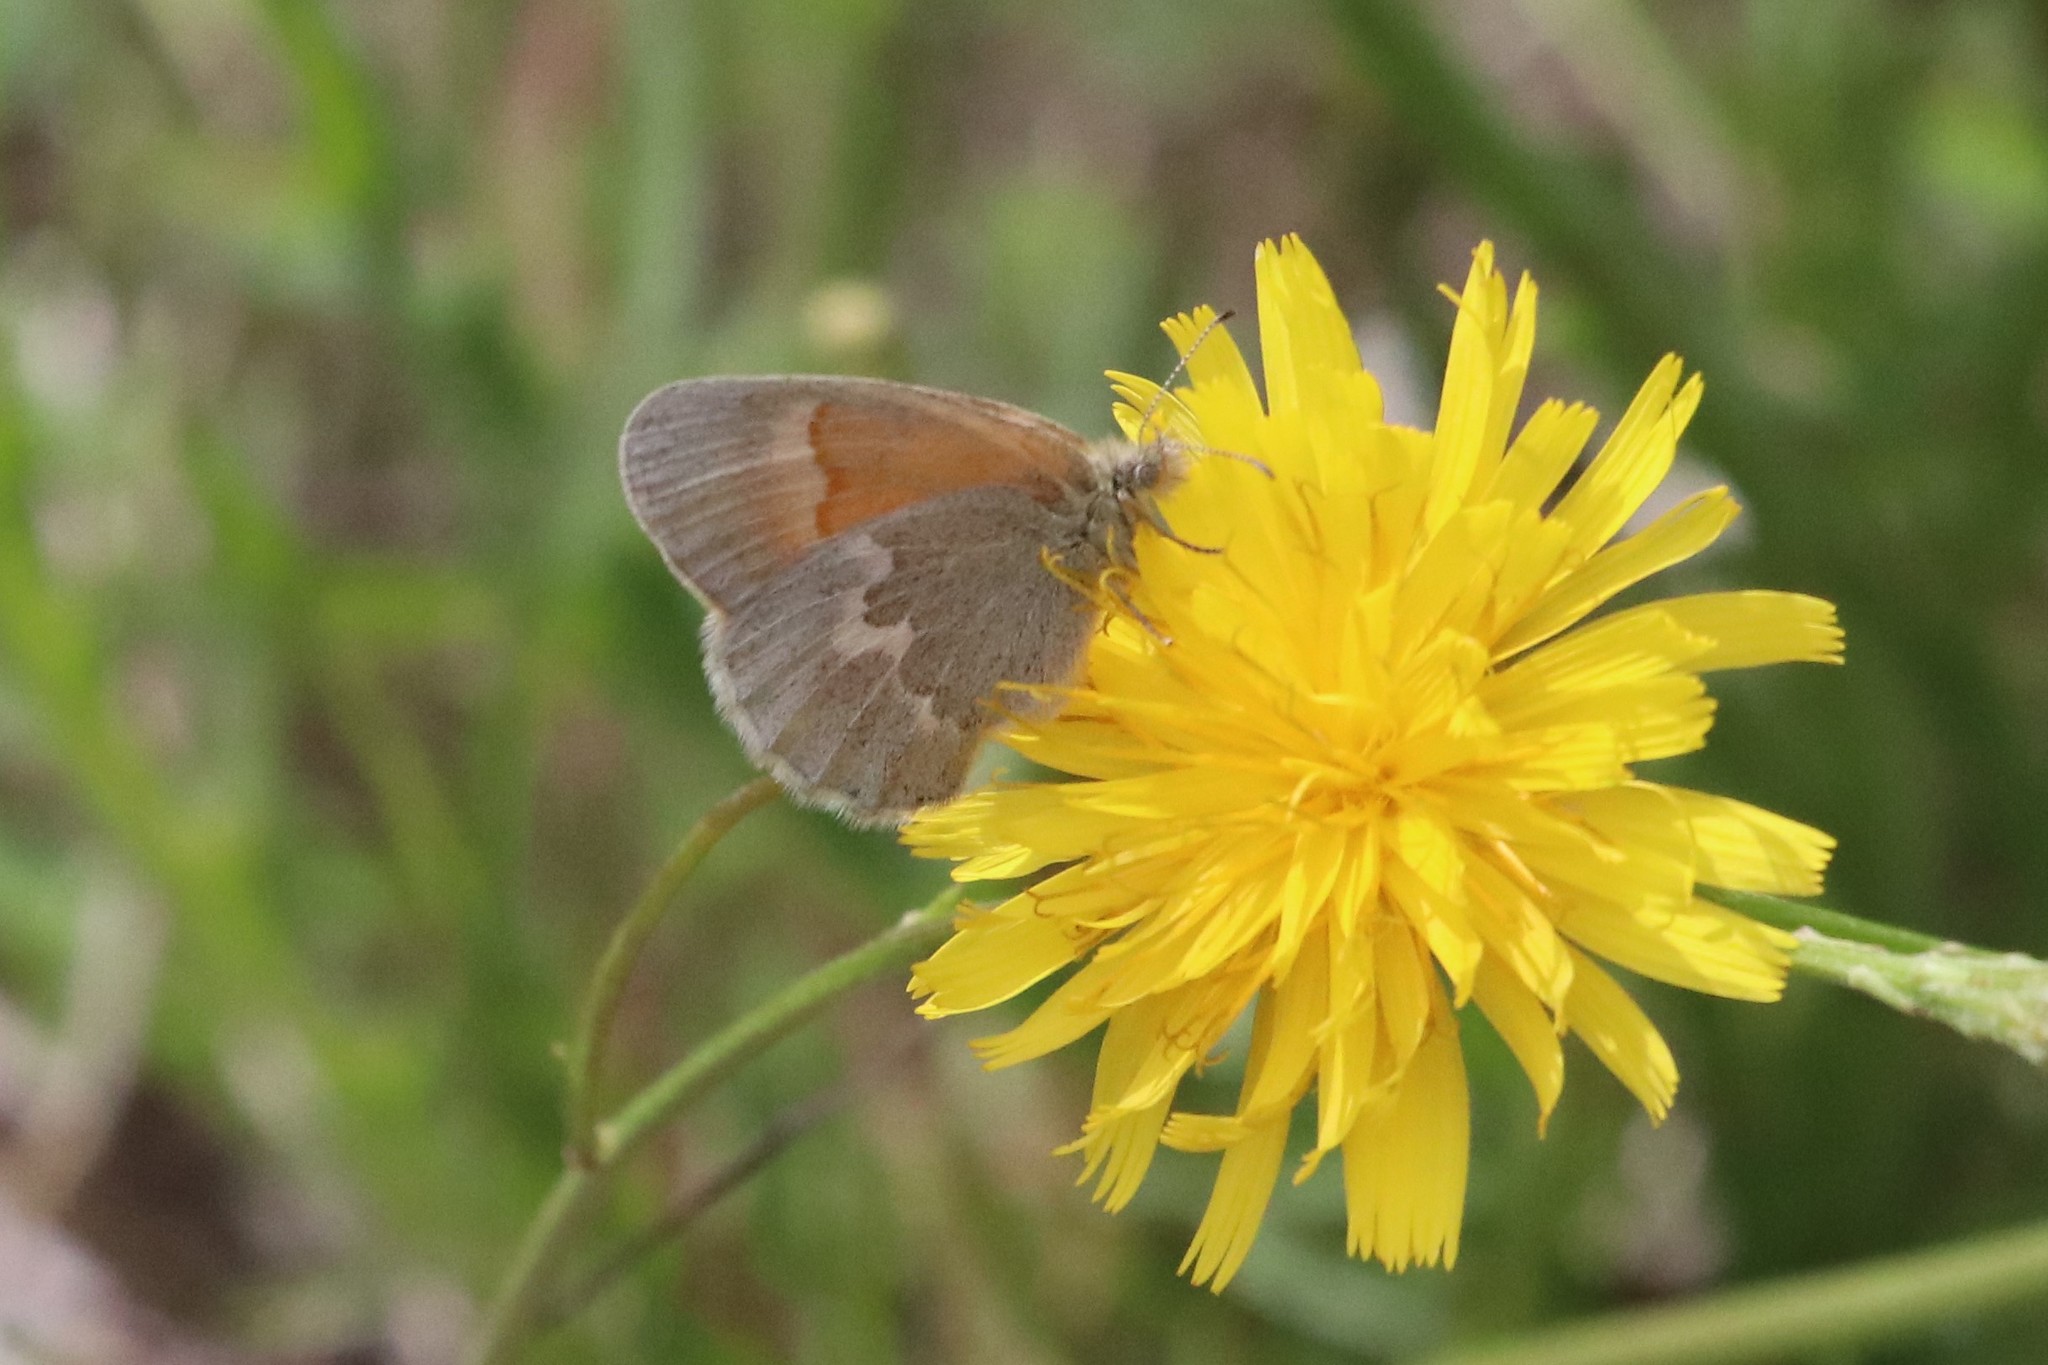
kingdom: Animalia
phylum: Arthropoda
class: Insecta
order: Lepidoptera
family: Nymphalidae
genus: Coenonympha
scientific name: Coenonympha california
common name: Common ringlet
